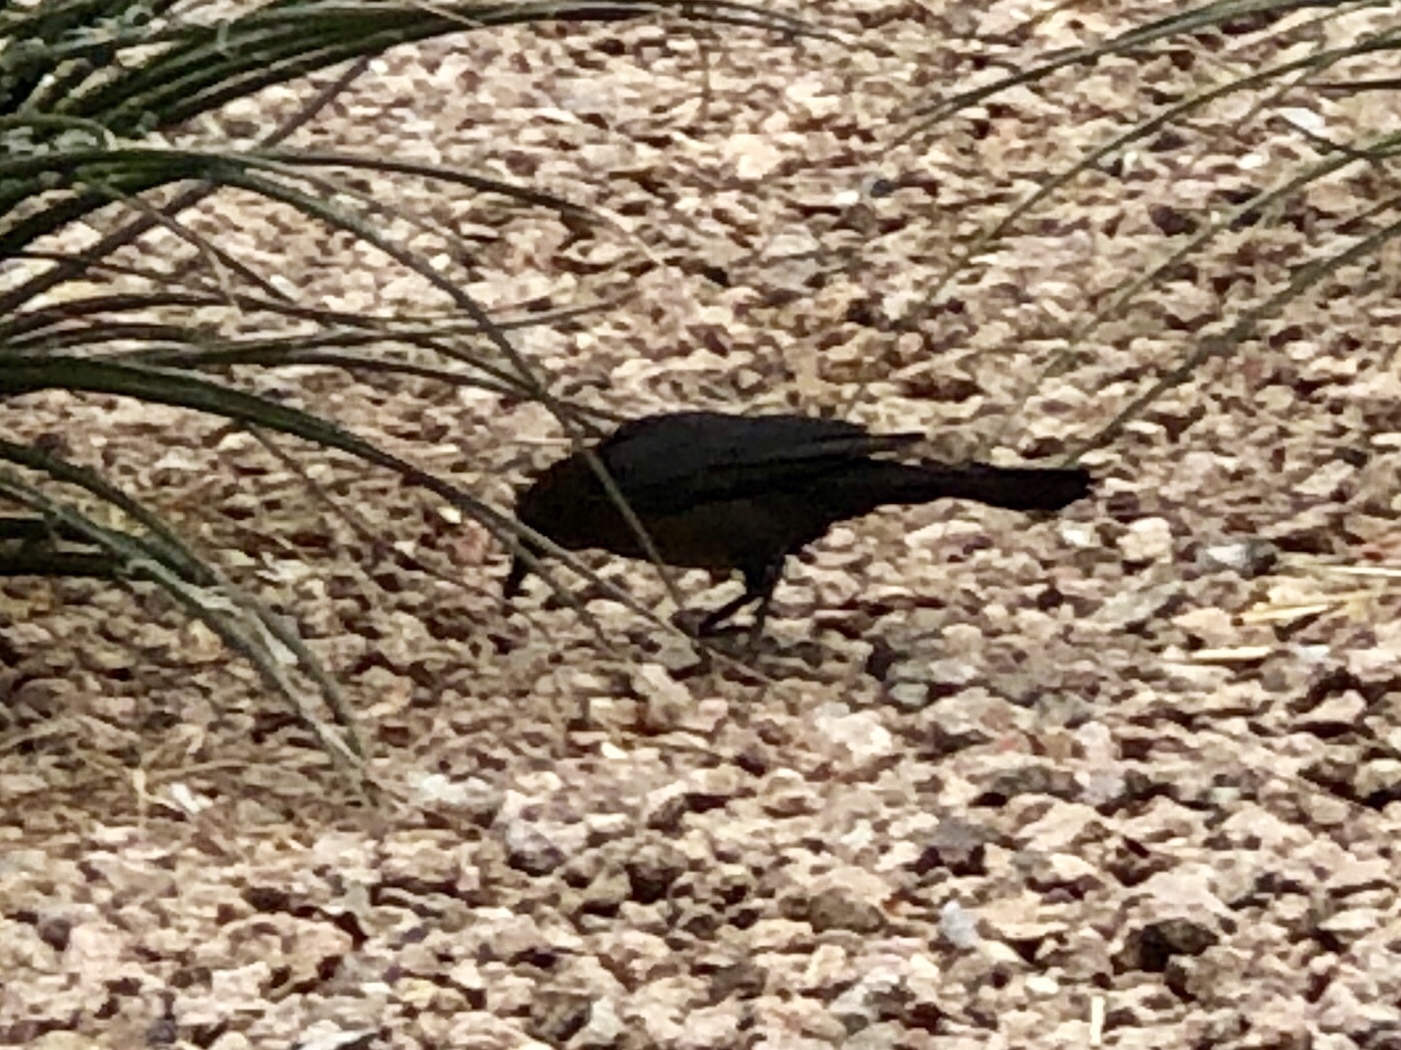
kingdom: Animalia
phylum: Chordata
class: Aves
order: Passeriformes
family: Icteridae
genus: Quiscalus
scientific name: Quiscalus mexicanus
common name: Great-tailed grackle
